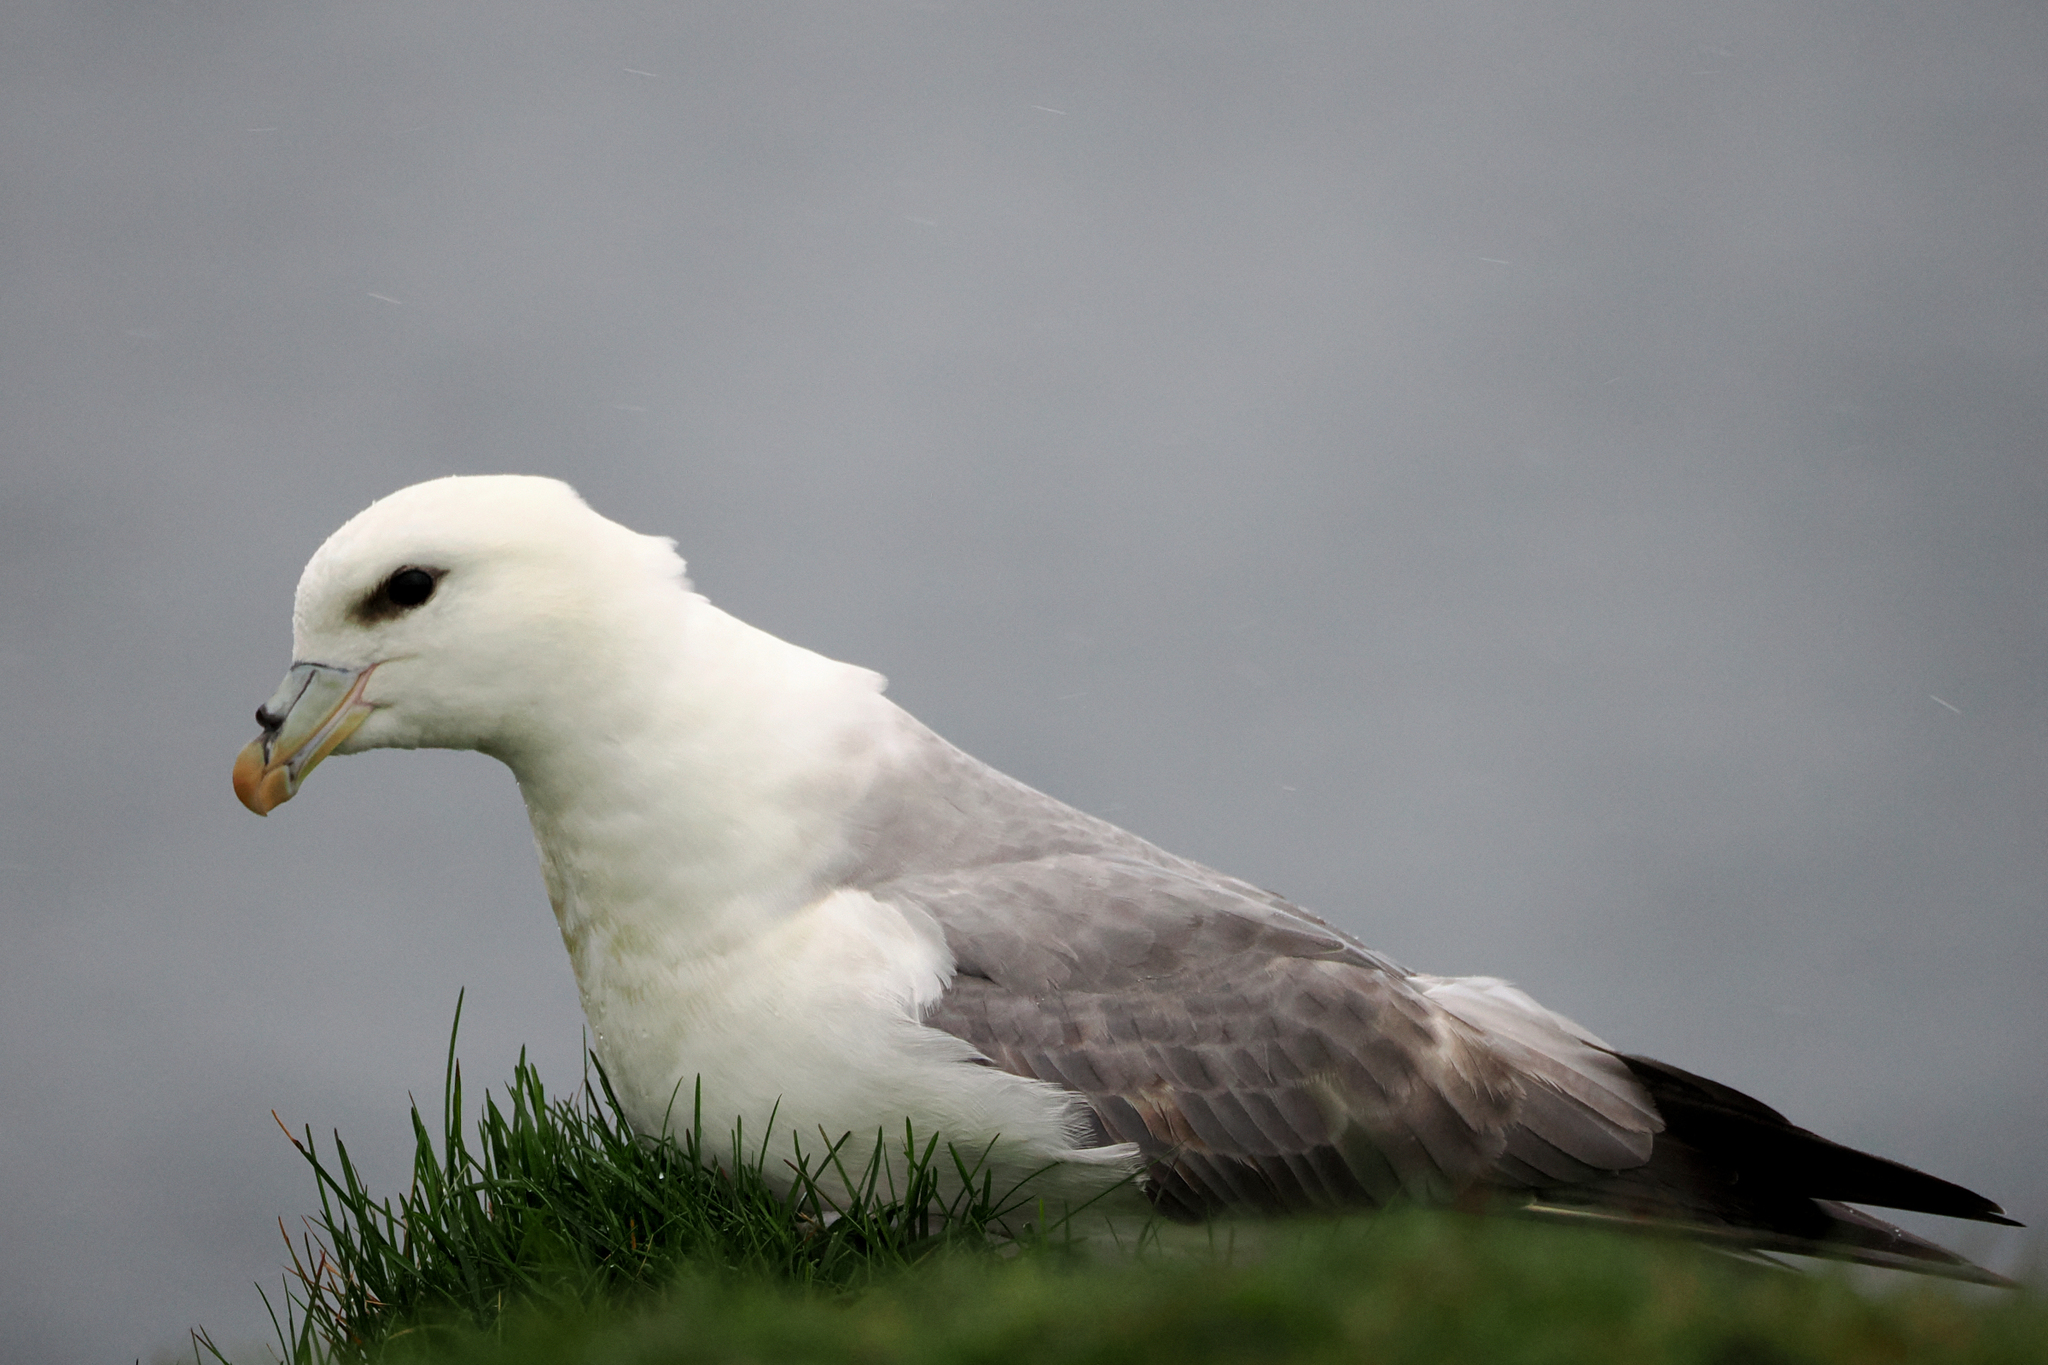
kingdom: Animalia
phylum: Chordata
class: Aves
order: Procellariiformes
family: Procellariidae
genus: Fulmarus
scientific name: Fulmarus glacialis
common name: Northern fulmar
